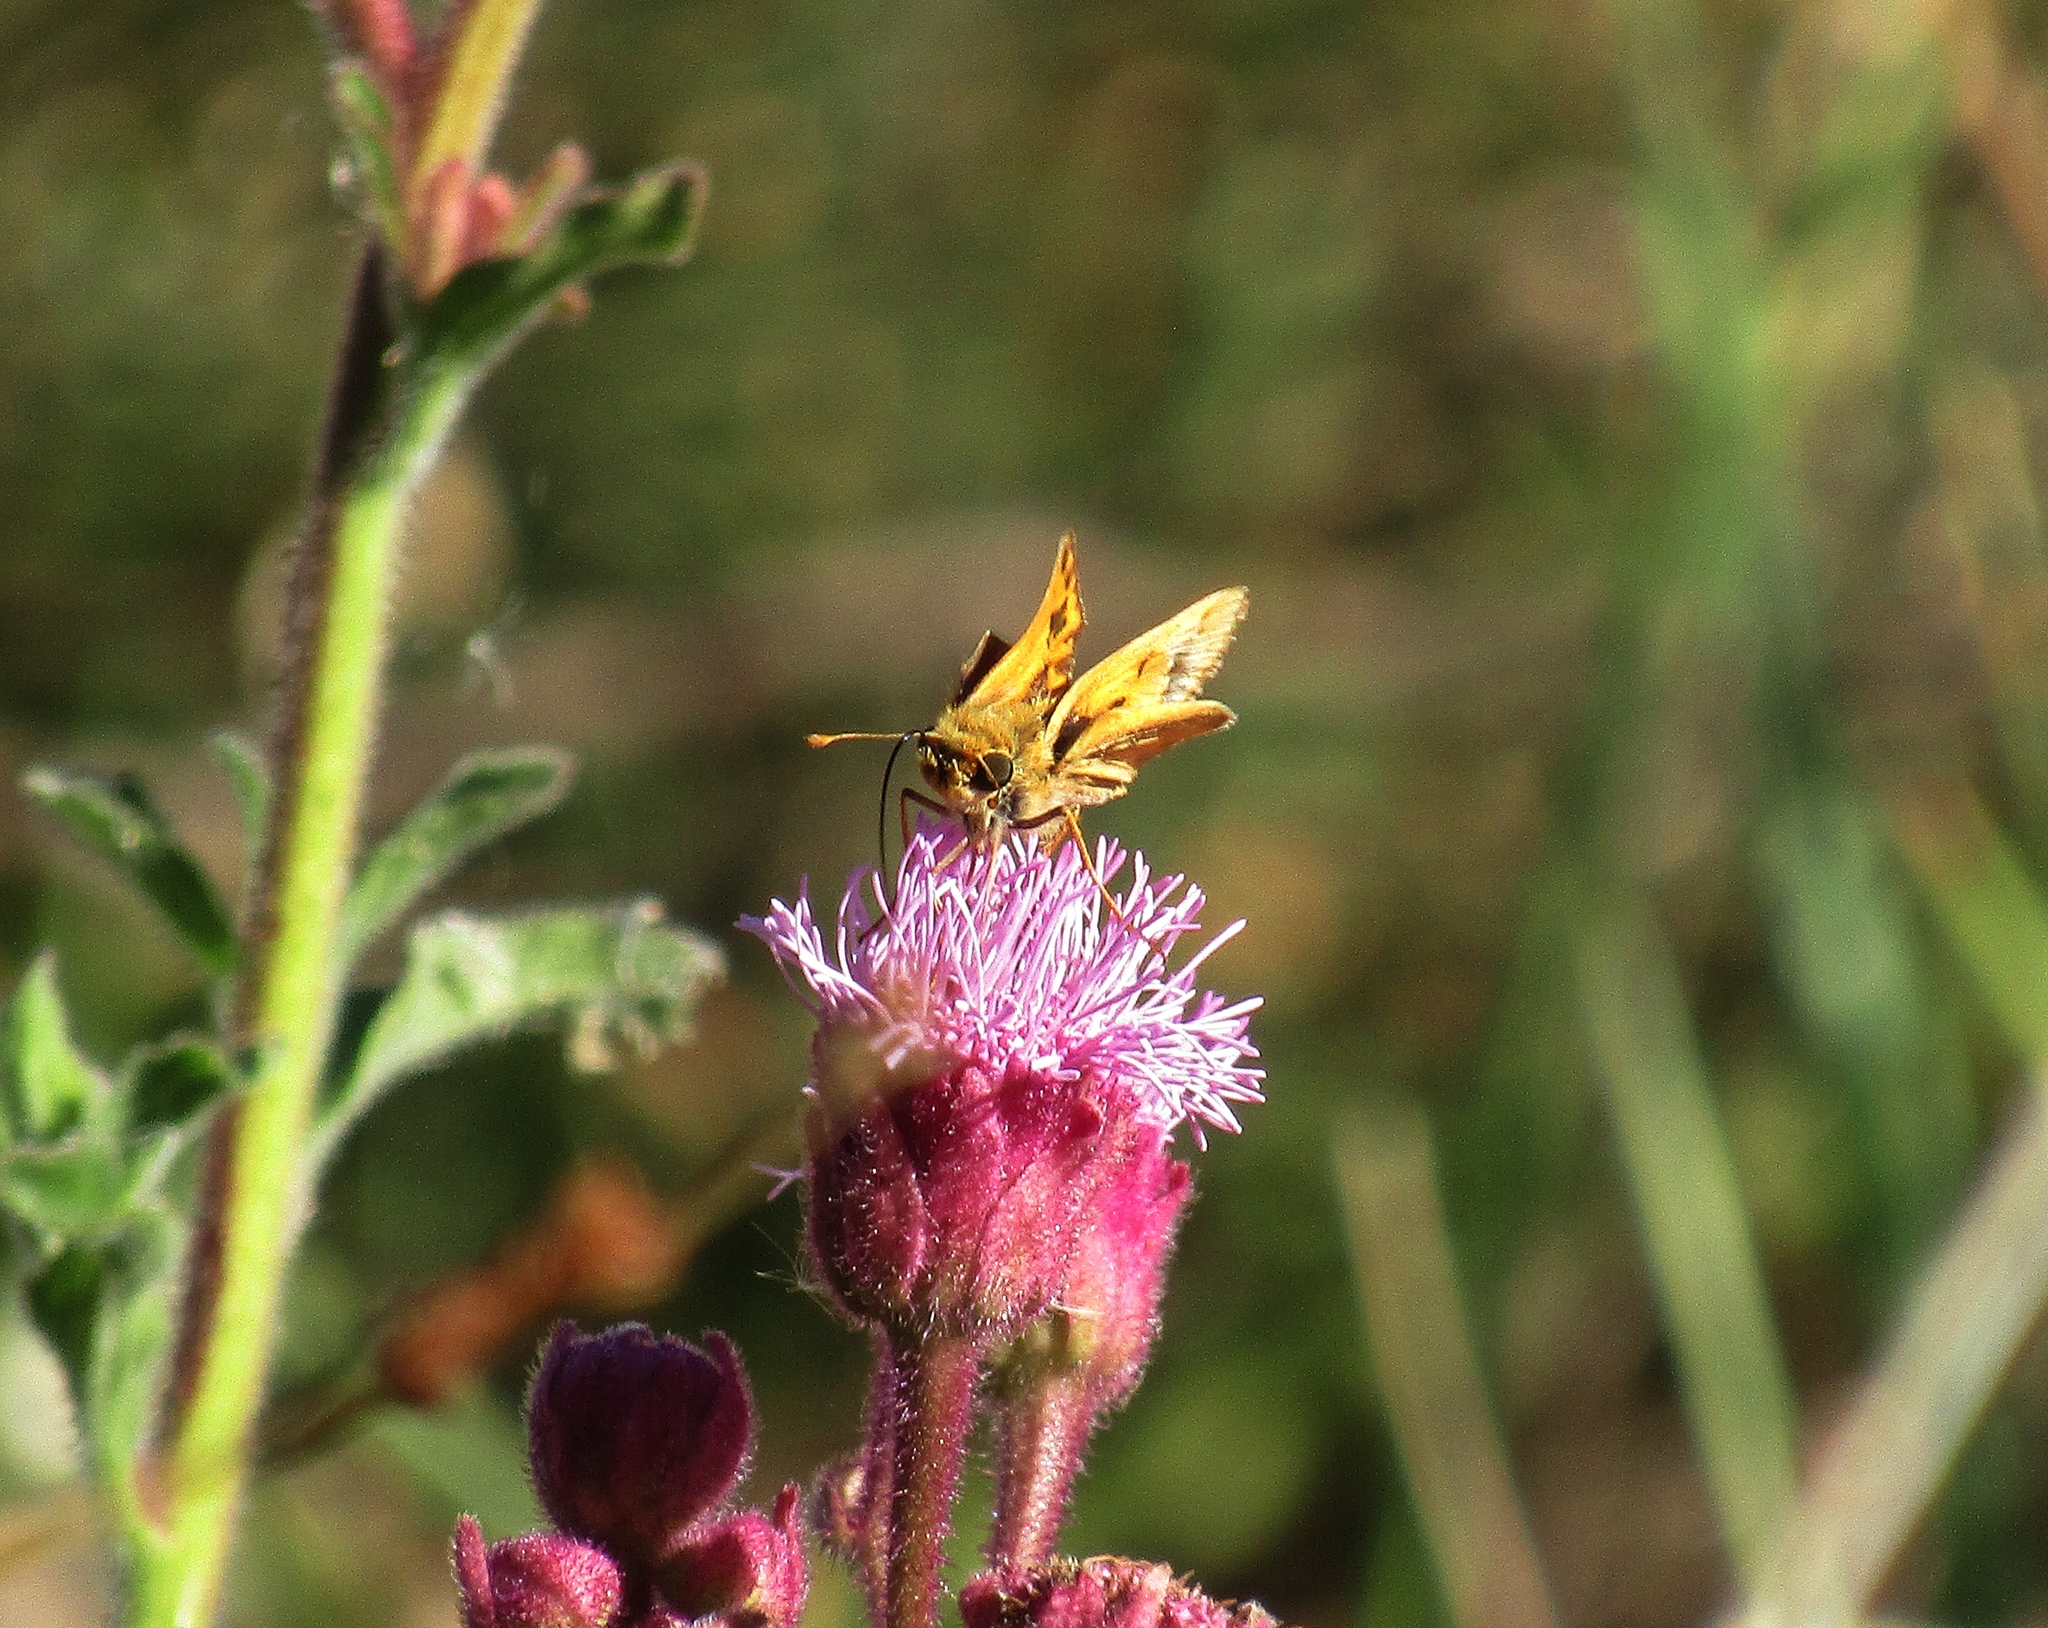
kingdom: Animalia
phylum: Arthropoda
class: Insecta
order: Lepidoptera
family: Hesperiidae
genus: Hylephila
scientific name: Hylephila phyleus
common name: Fiery skipper
